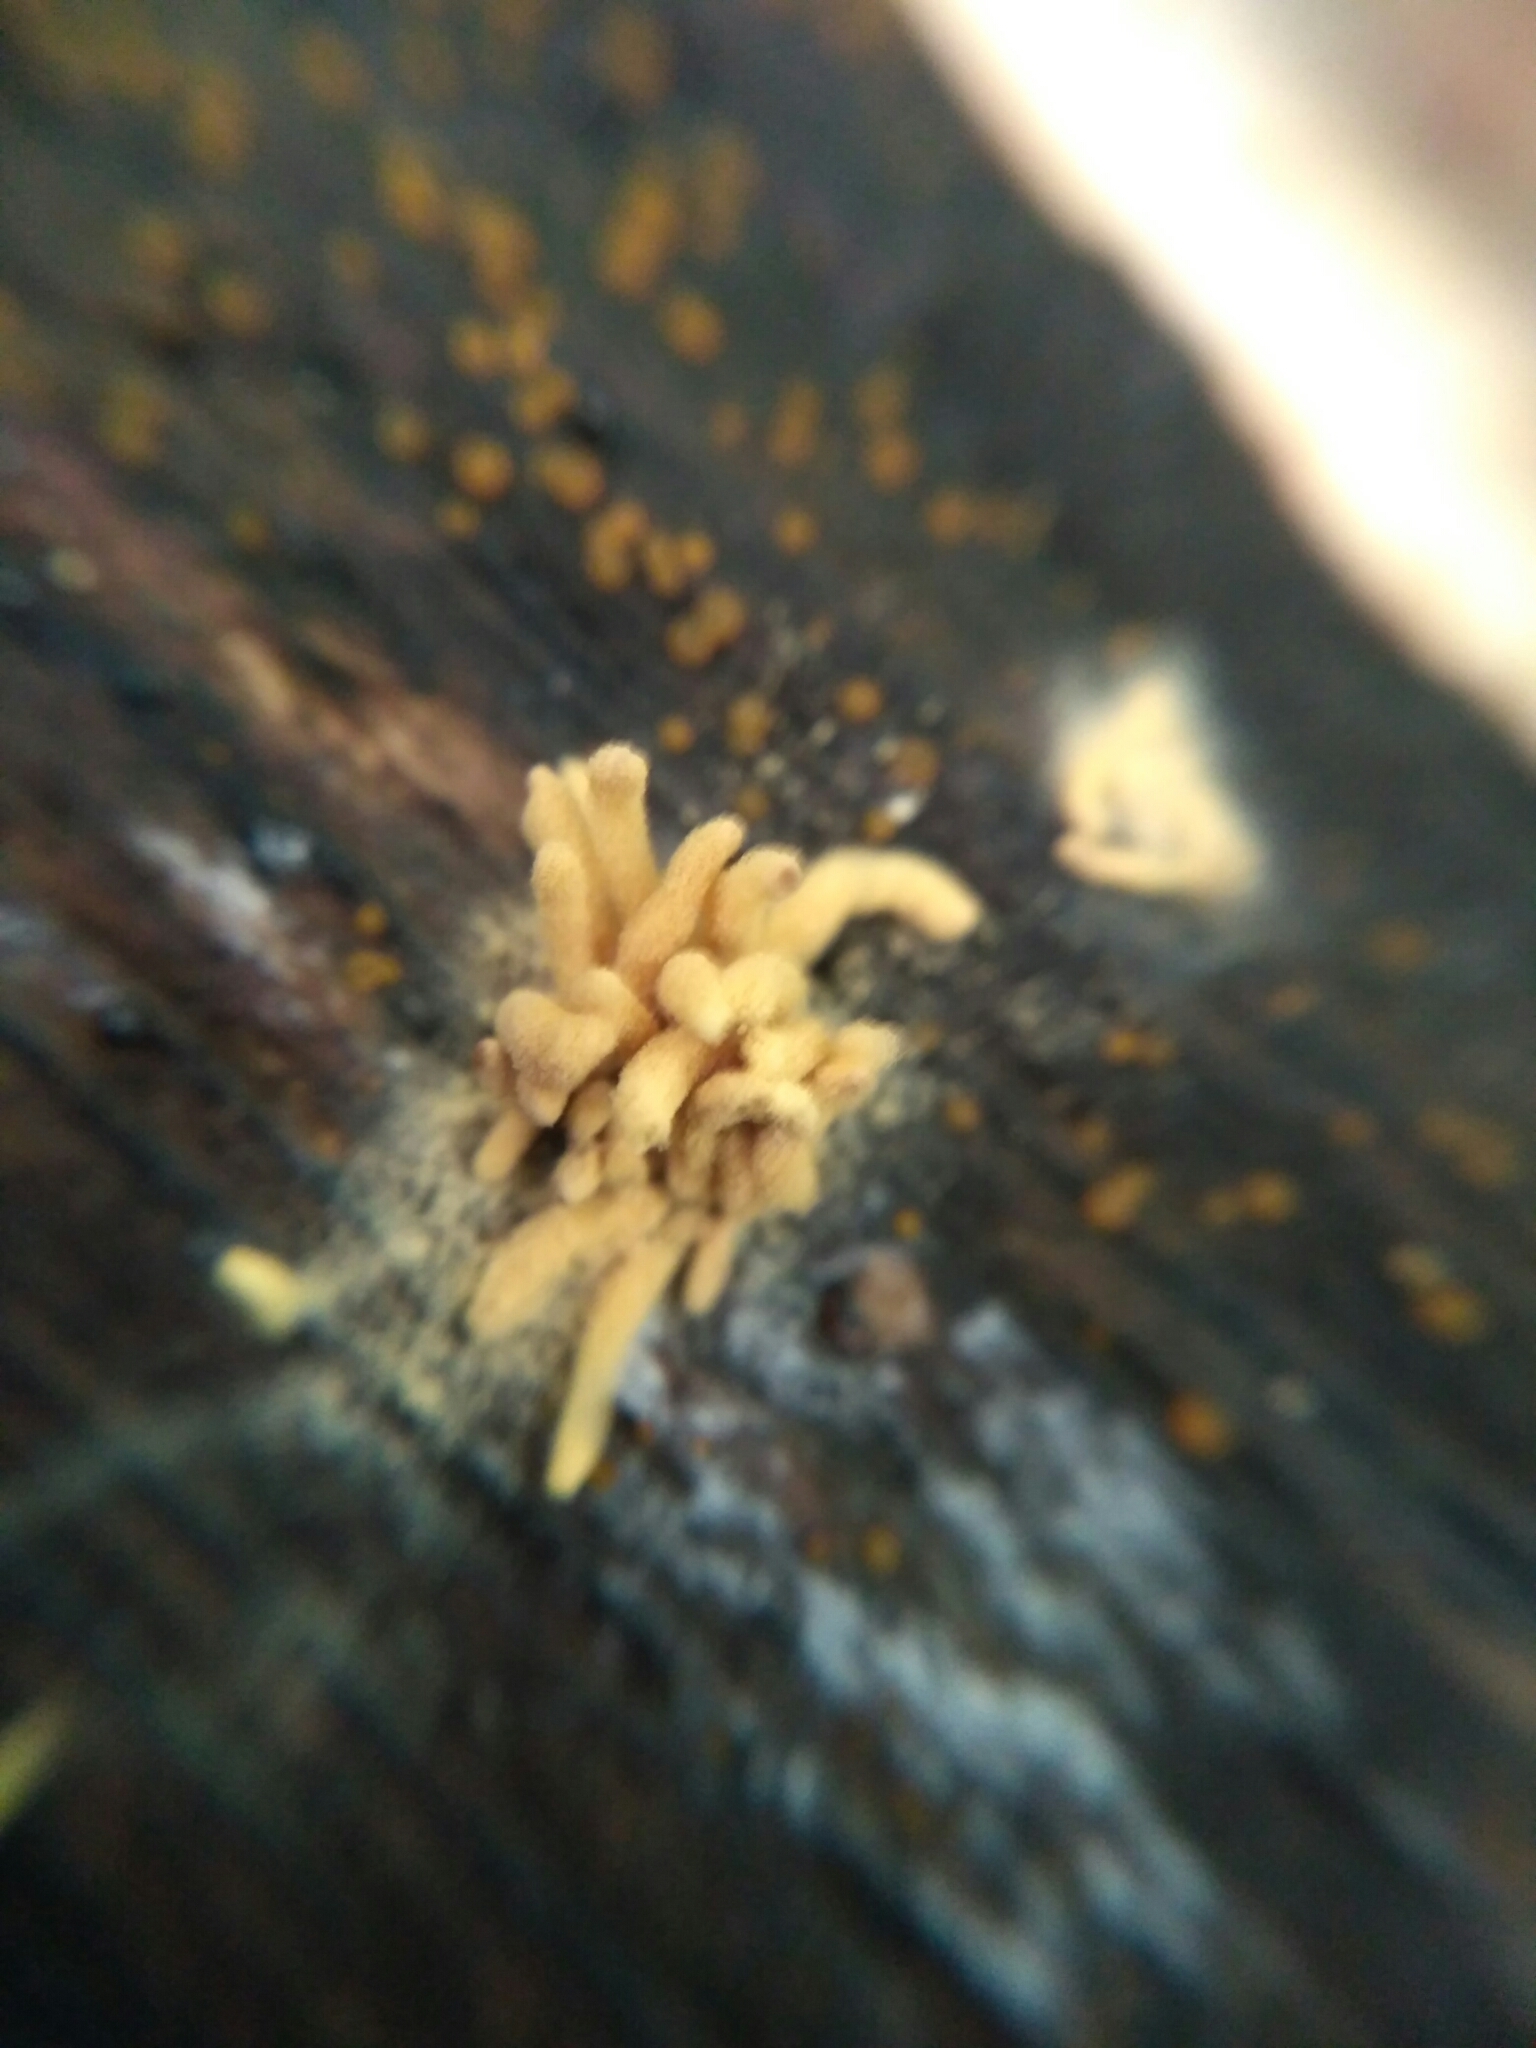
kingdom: Protozoa
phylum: Mycetozoa
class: Myxomycetes
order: Trichiales
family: Arcyriaceae
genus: Arcyria
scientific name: Arcyria obvelata
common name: Yellow carnival candy slime
